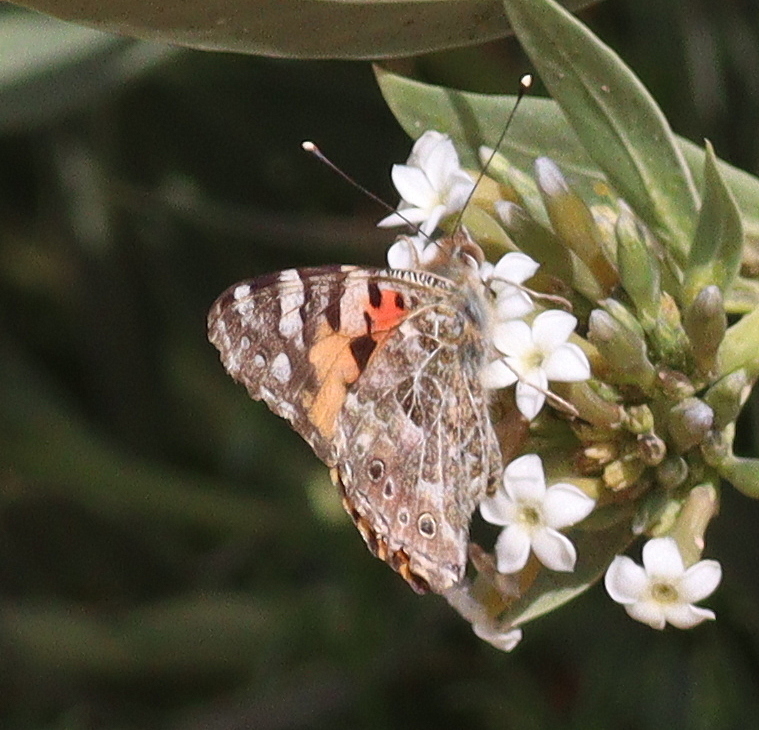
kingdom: Animalia
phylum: Arthropoda
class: Insecta
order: Lepidoptera
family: Nymphalidae
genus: Vanessa
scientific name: Vanessa cardui
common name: Painted lady
